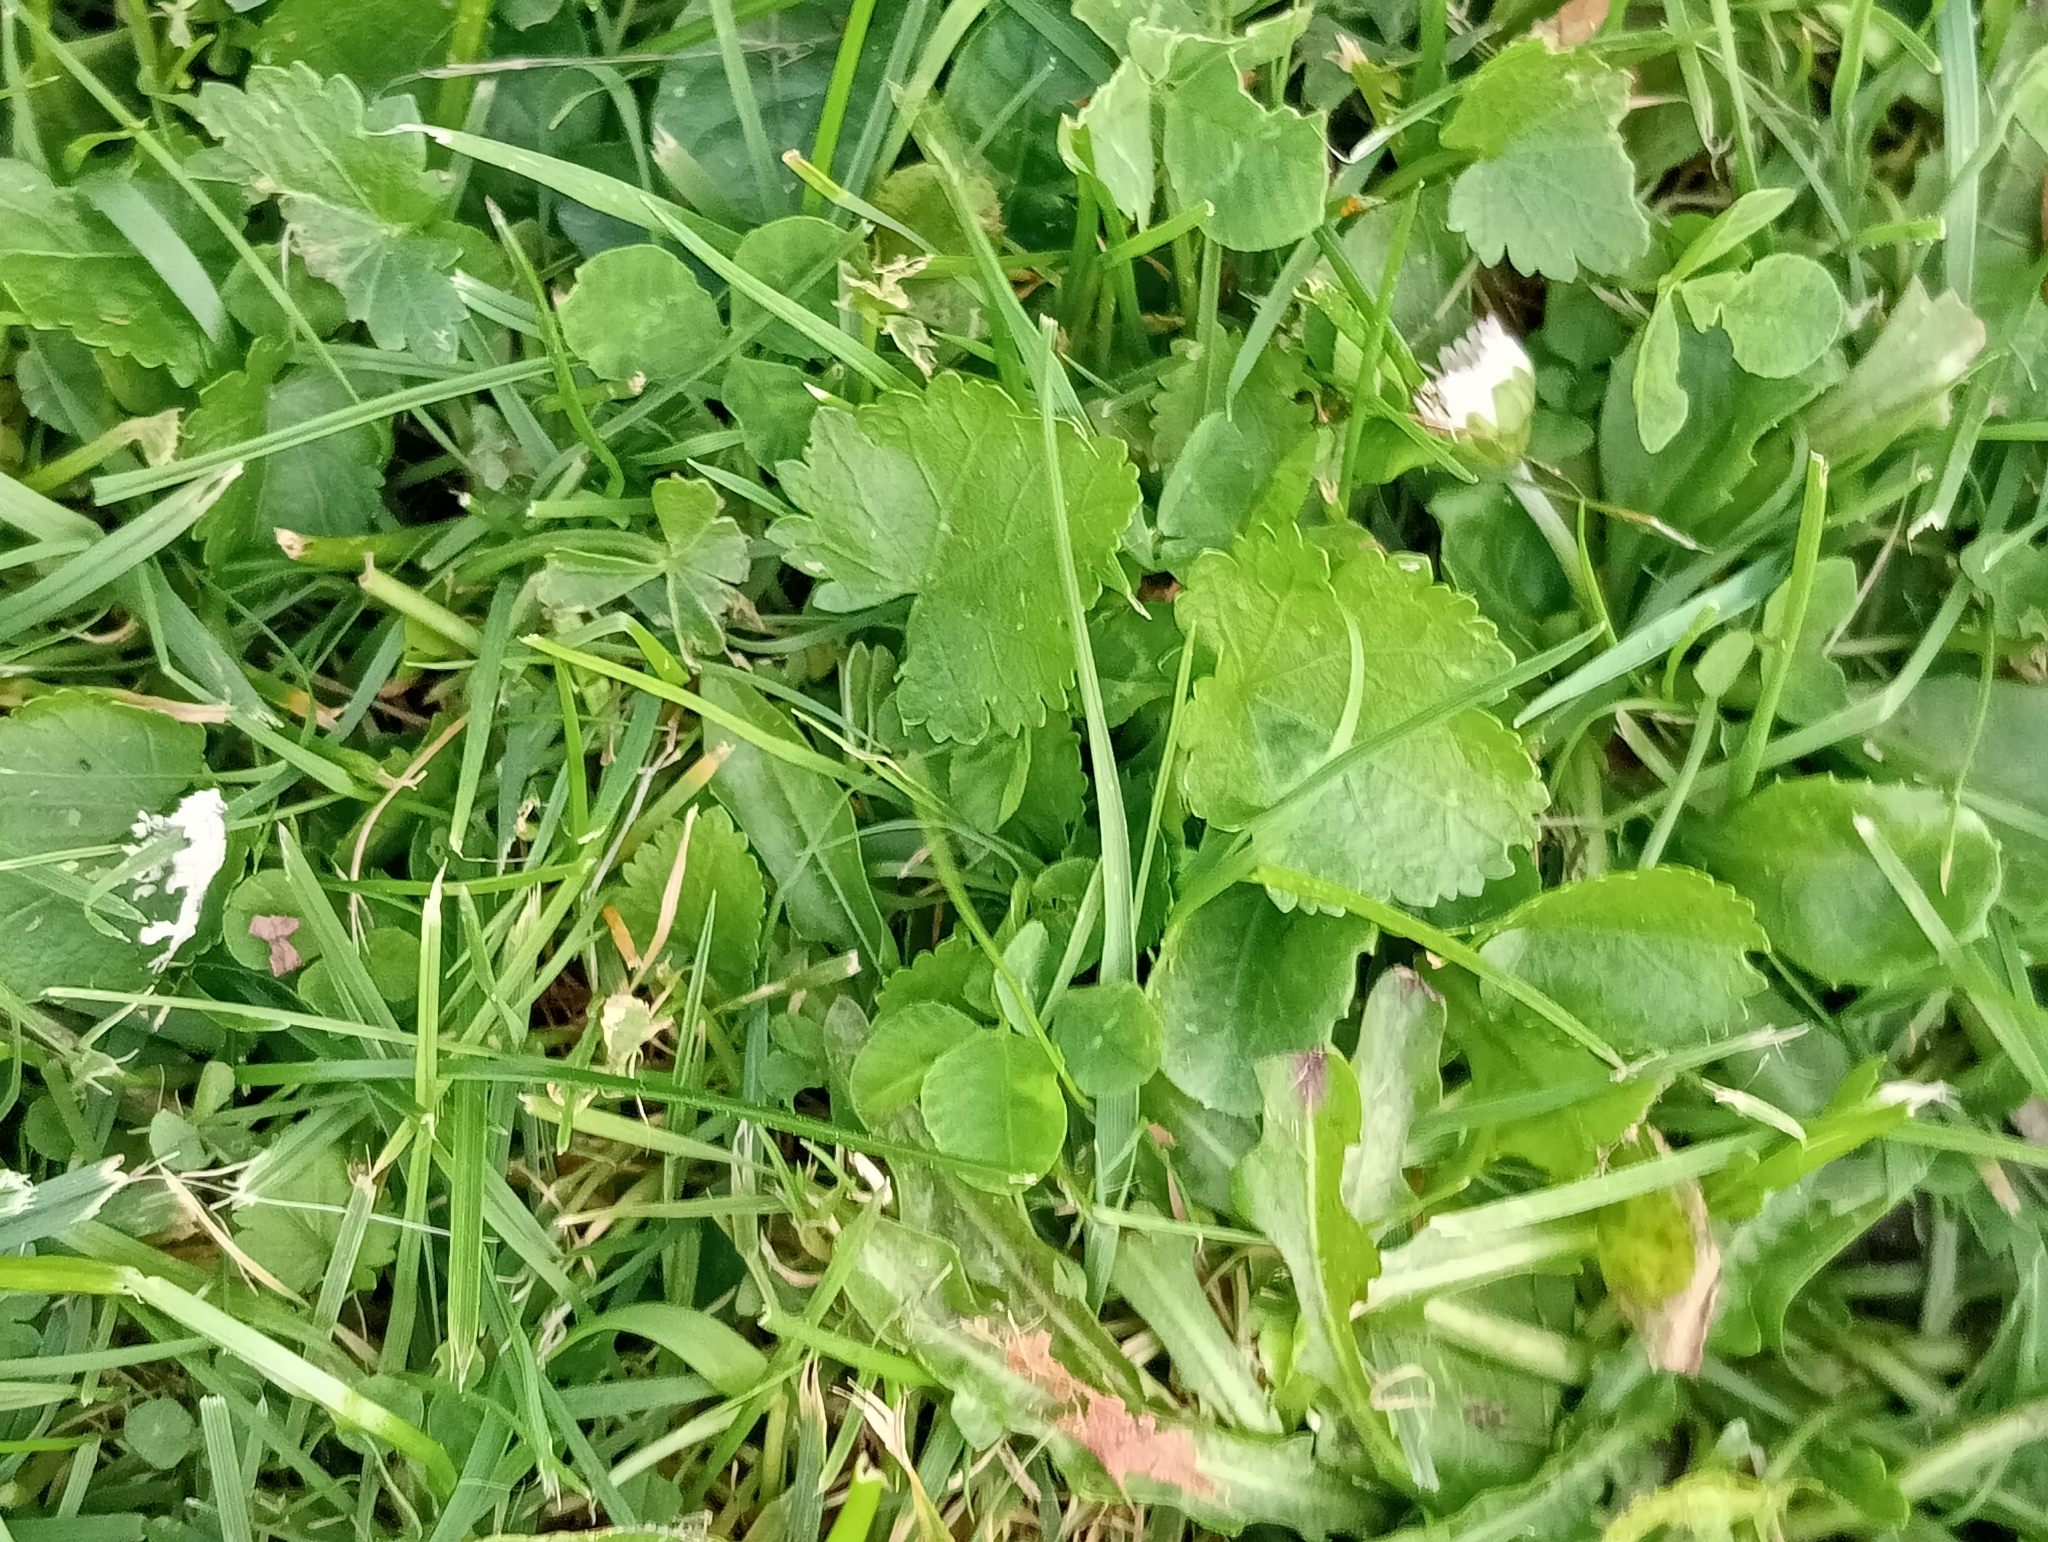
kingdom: Plantae
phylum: Tracheophyta
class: Magnoliopsida
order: Malvales
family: Malvaceae
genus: Modiola
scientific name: Modiola caroliniana
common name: Carolina bristlemallow
